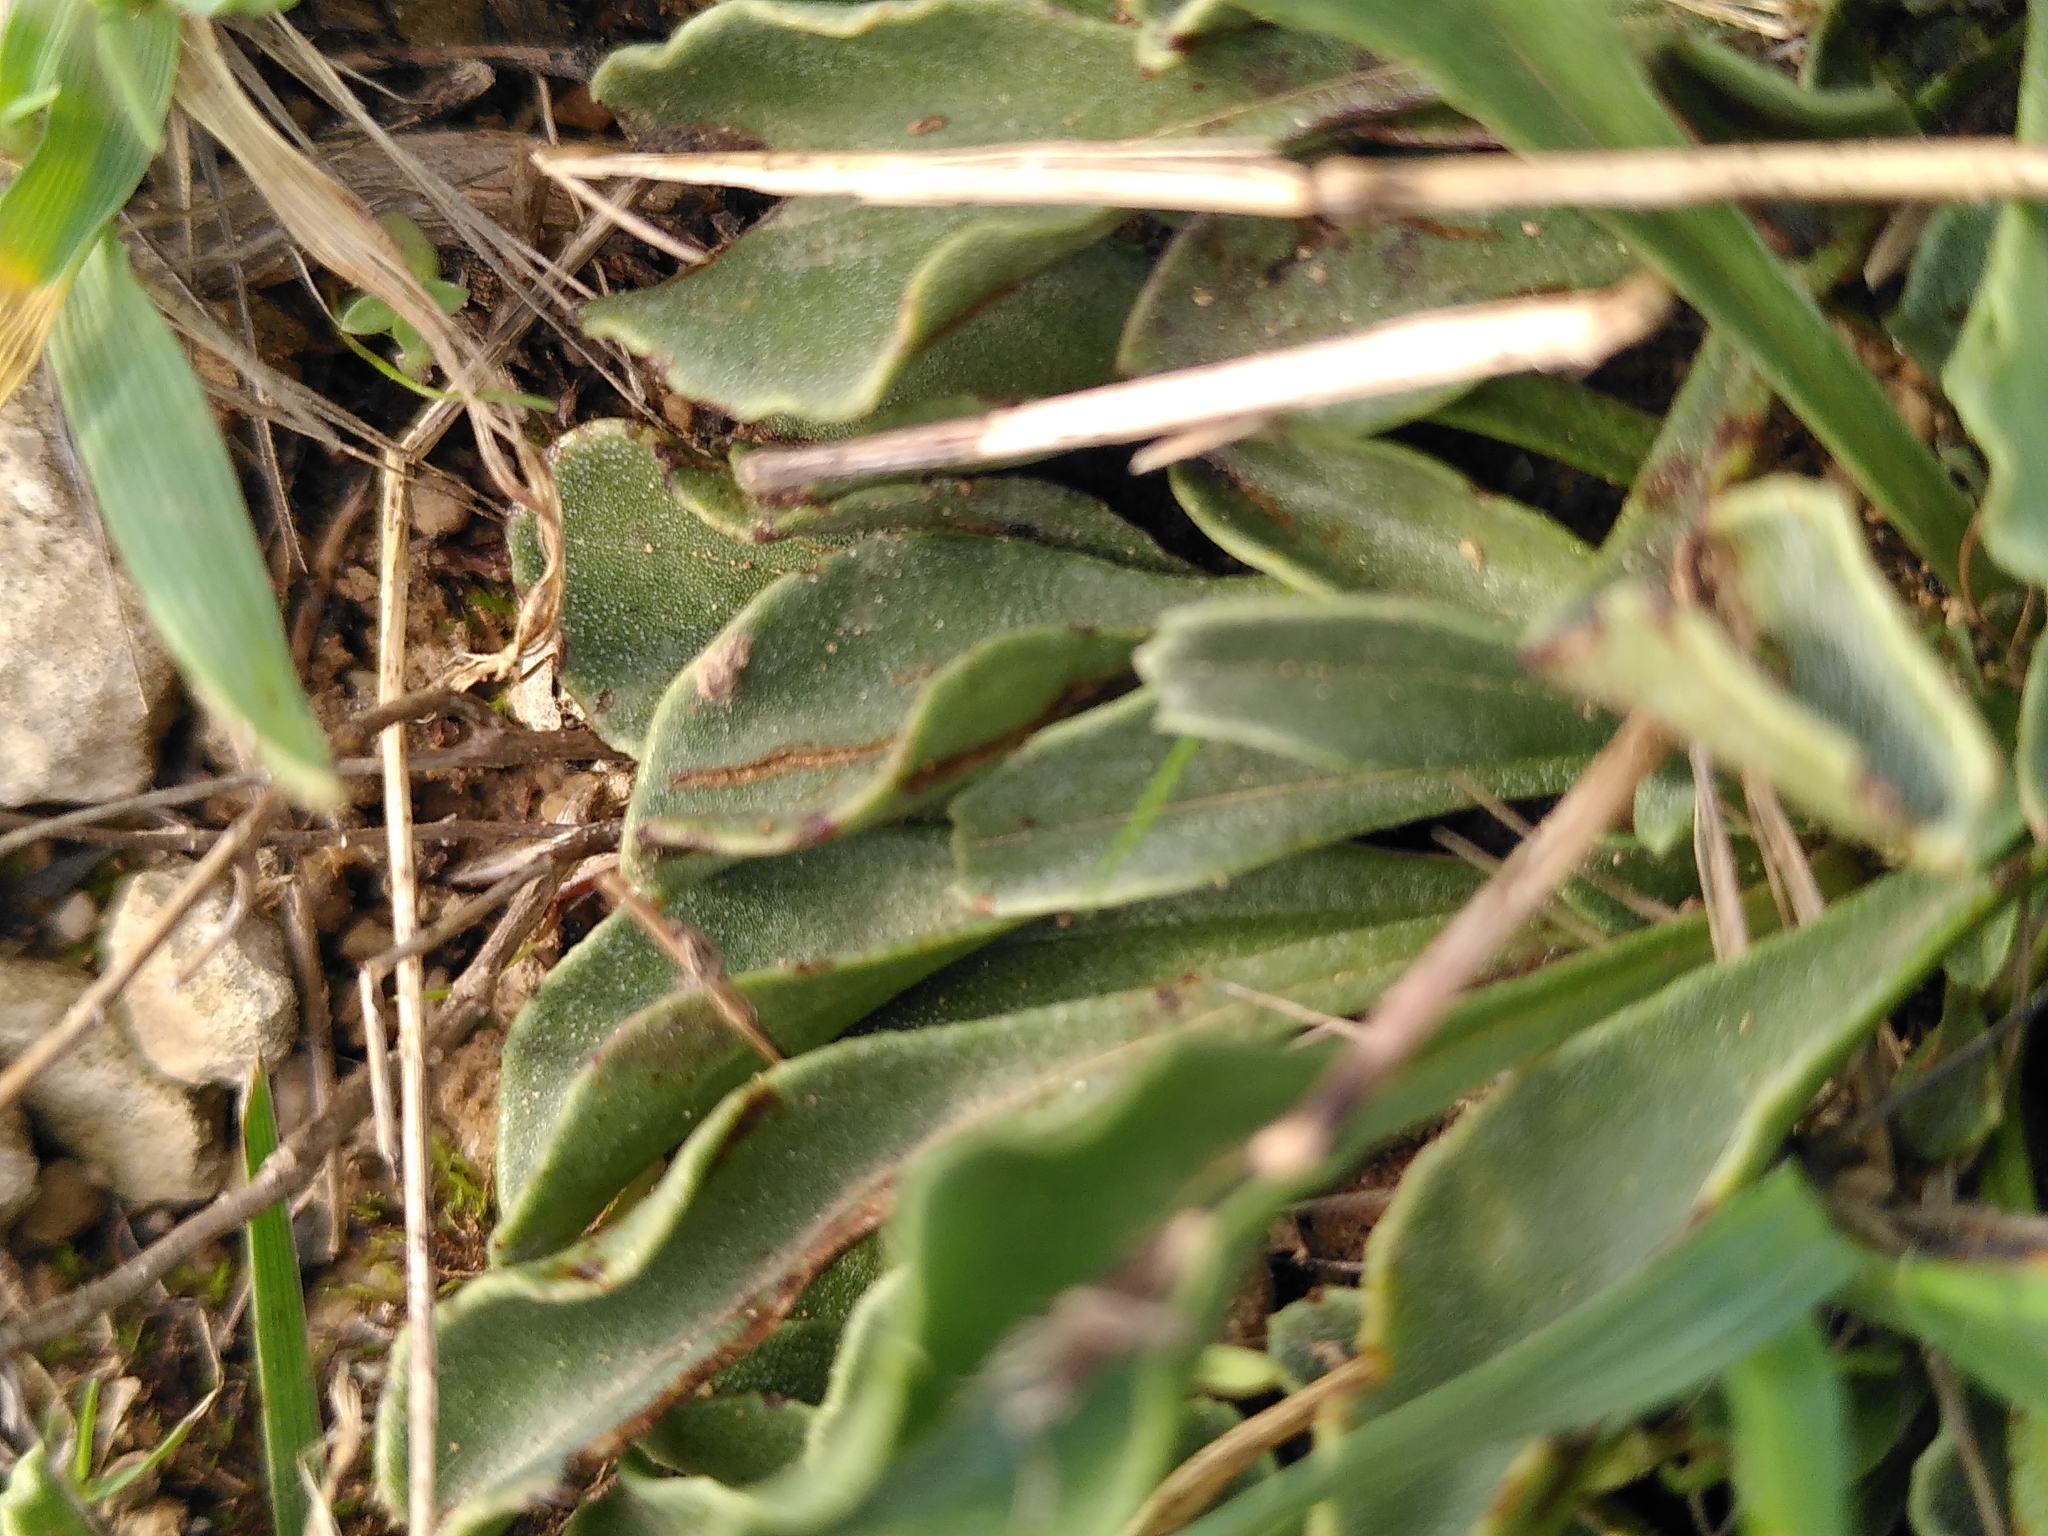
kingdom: Plantae
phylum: Tracheophyta
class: Magnoliopsida
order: Lamiales
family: Plantaginaceae
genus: Globularia
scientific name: Globularia vulgaris
